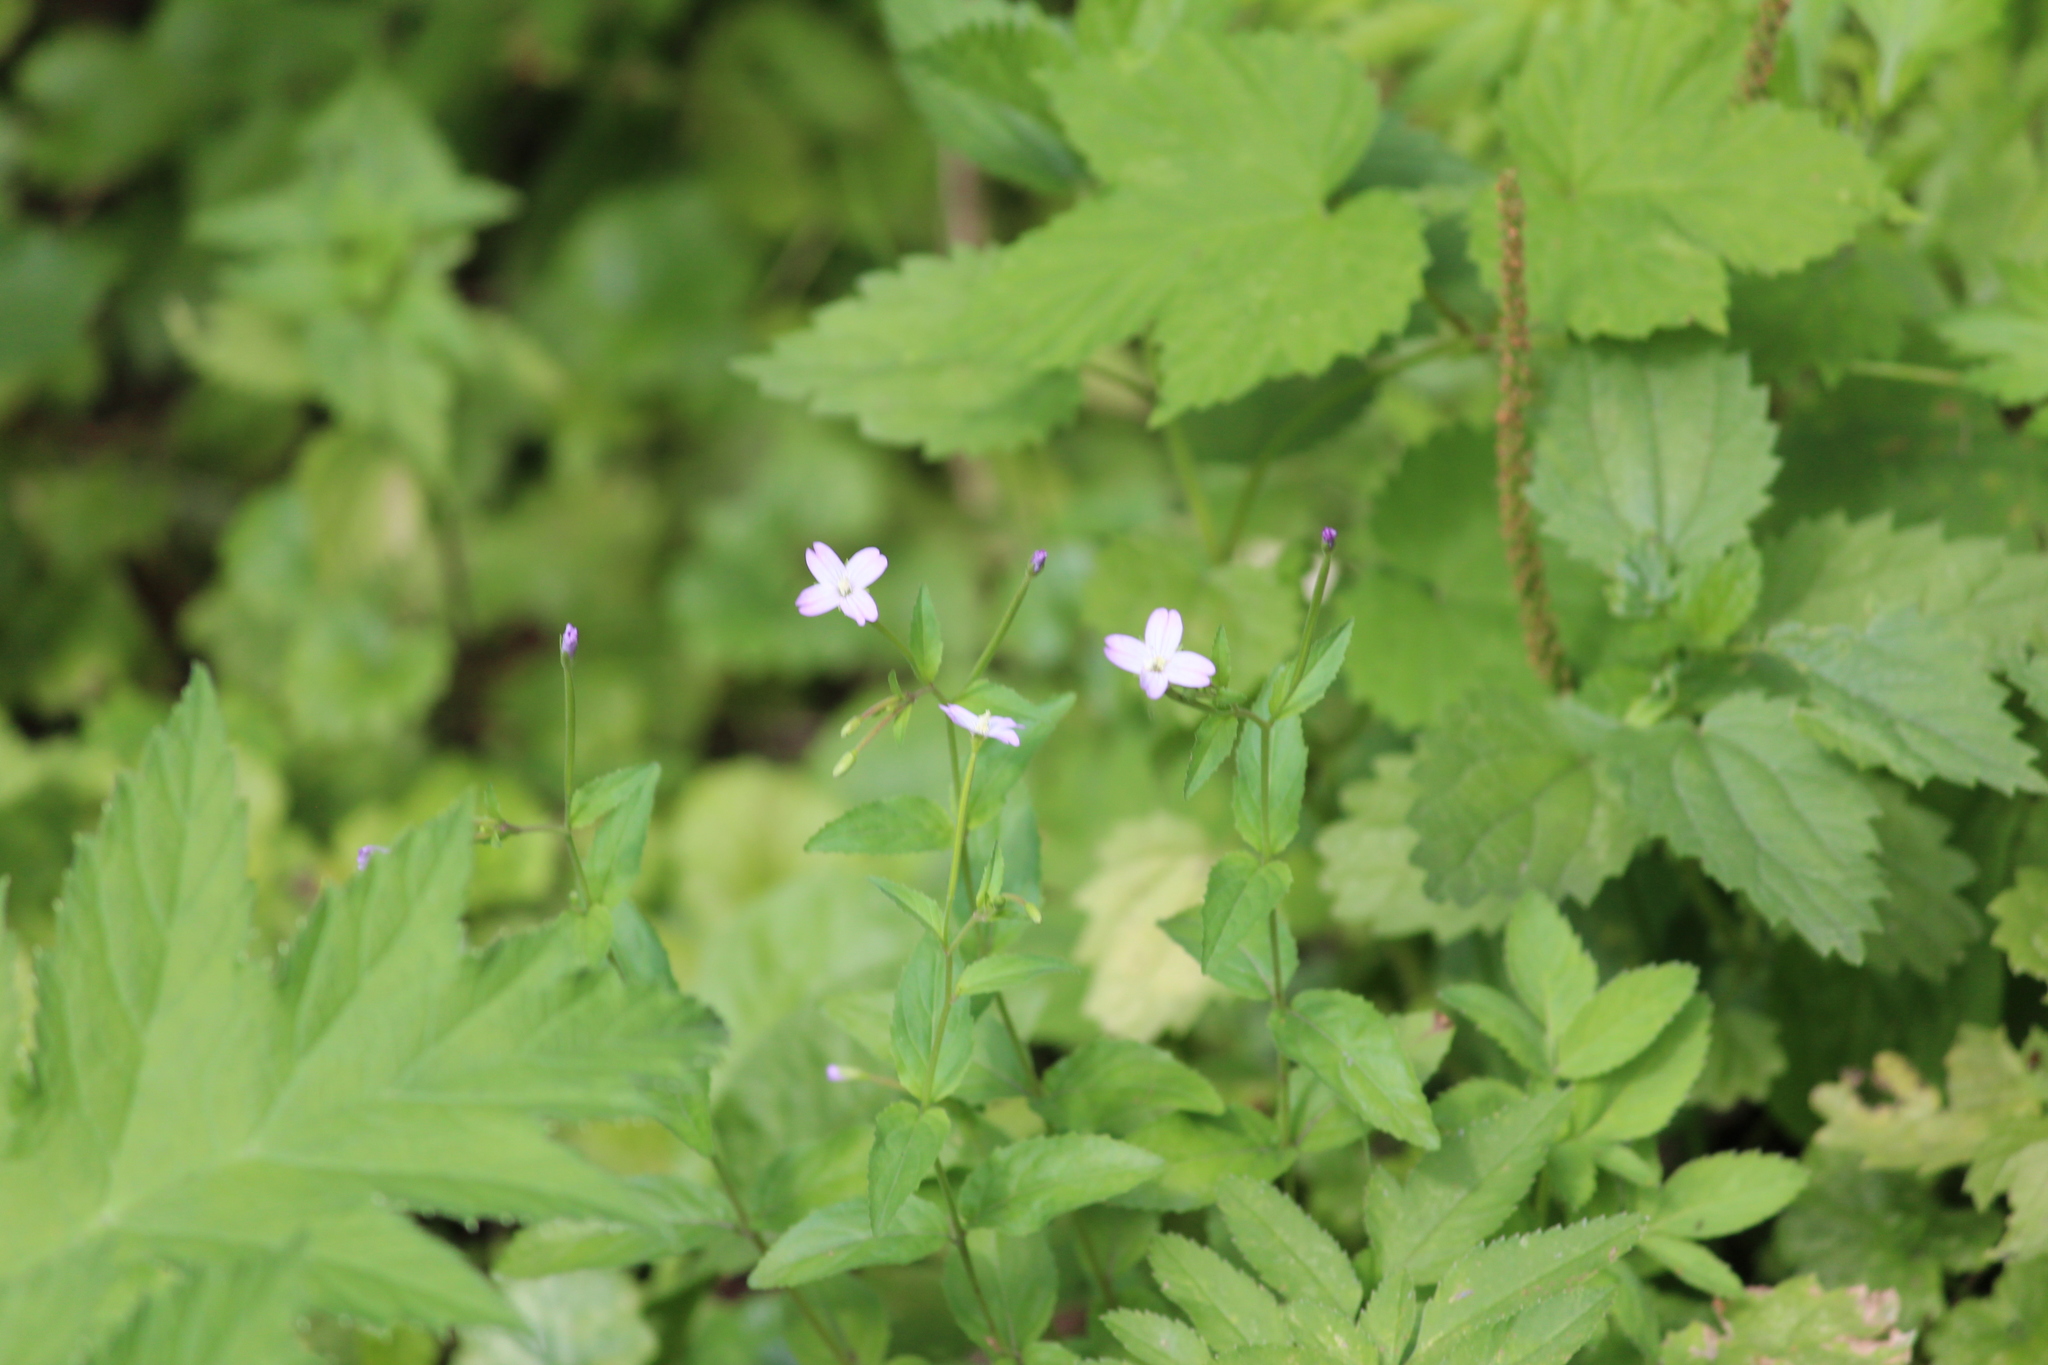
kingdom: Plantae
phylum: Tracheophyta
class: Magnoliopsida
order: Myrtales
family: Onagraceae
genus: Epilobium
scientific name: Epilobium montanum
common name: Broad-leaved willowherb
